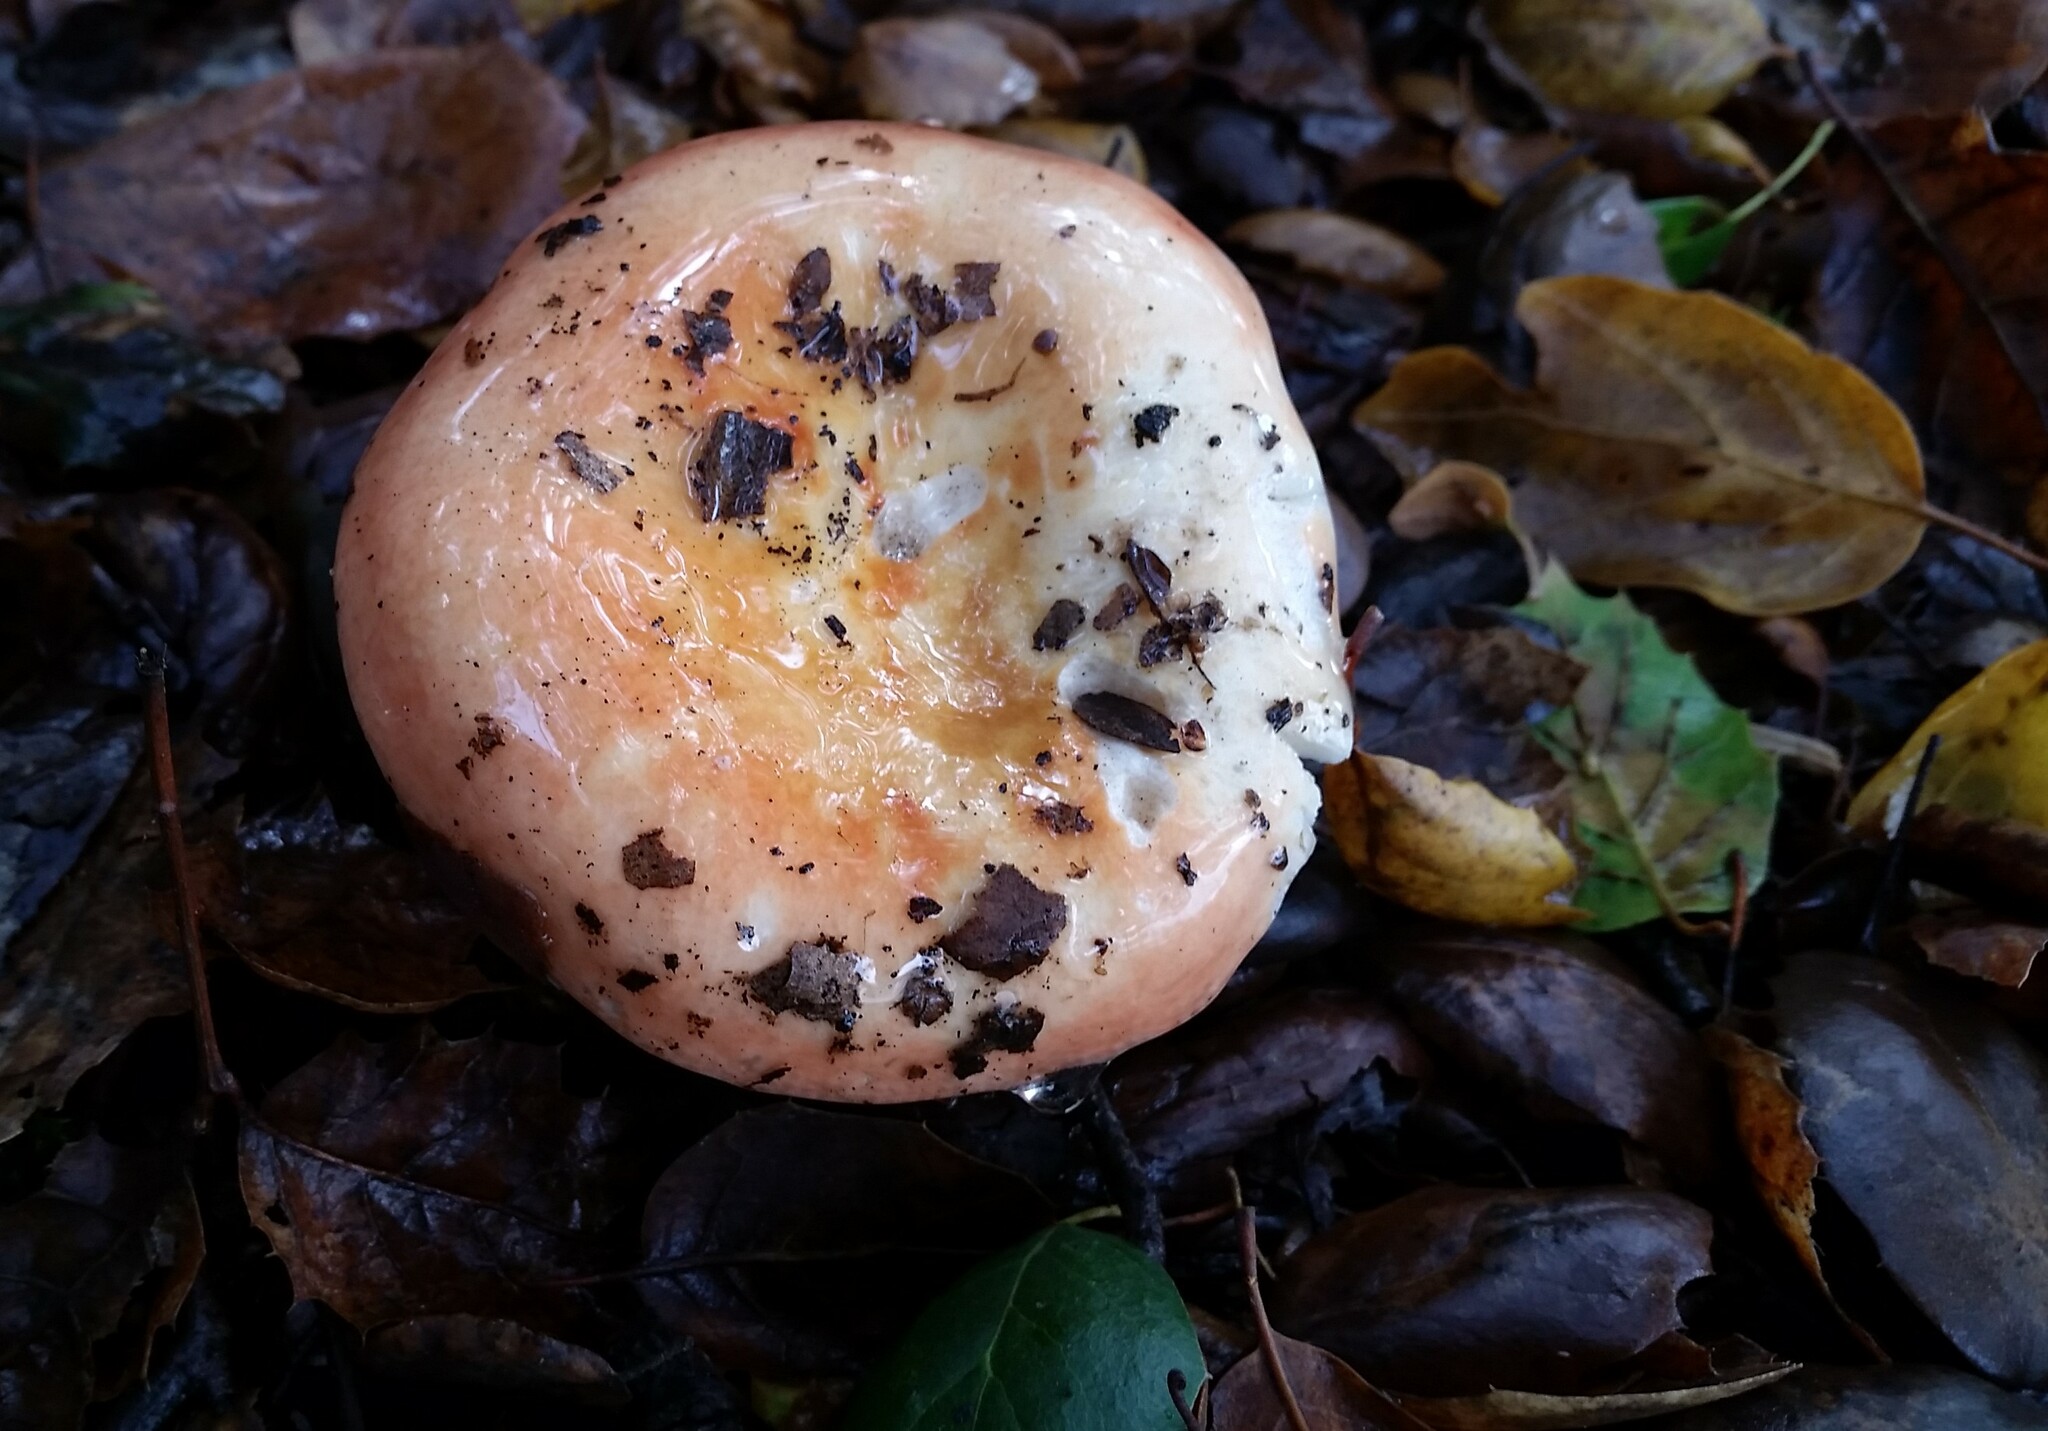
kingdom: Fungi
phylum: Basidiomycota
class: Agaricomycetes
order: Russulales
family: Russulaceae
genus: Lactarius
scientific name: Lactarius alnicola
